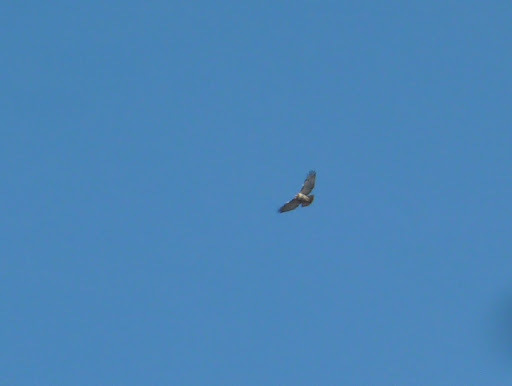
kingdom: Animalia
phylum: Chordata
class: Aves
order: Accipitriformes
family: Accipitridae
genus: Buteo
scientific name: Buteo jamaicensis
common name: Red-tailed hawk
